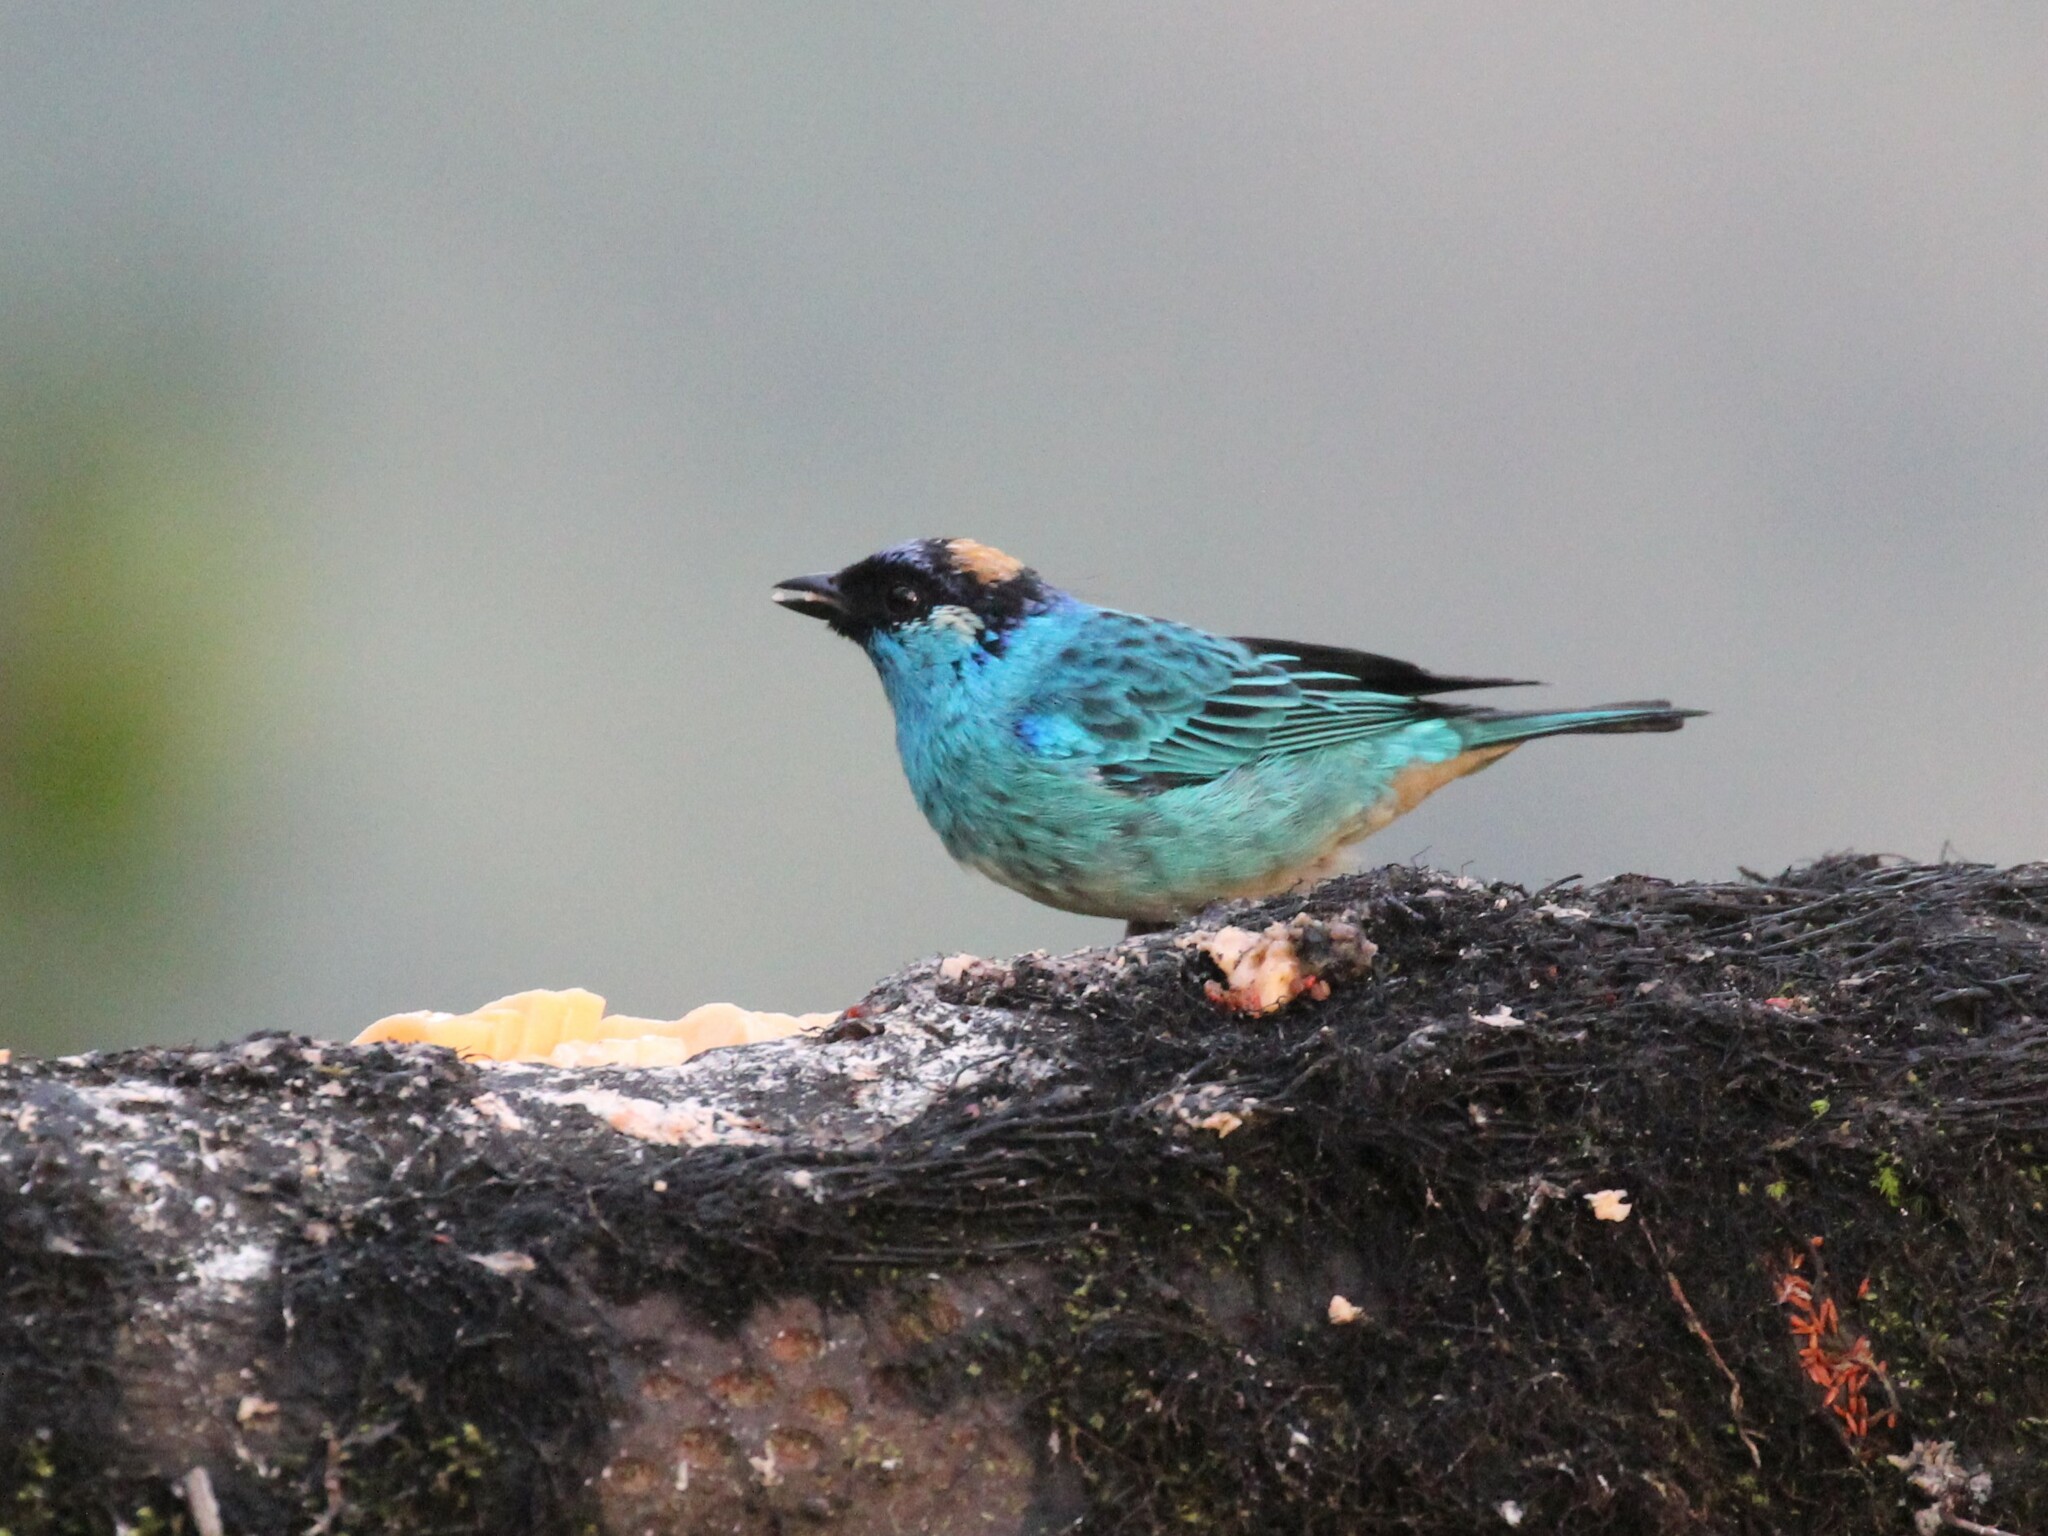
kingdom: Animalia
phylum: Chordata
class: Aves
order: Passeriformes
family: Thraupidae
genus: Chalcothraupis
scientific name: Chalcothraupis ruficervix
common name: Golden-naped tanager
